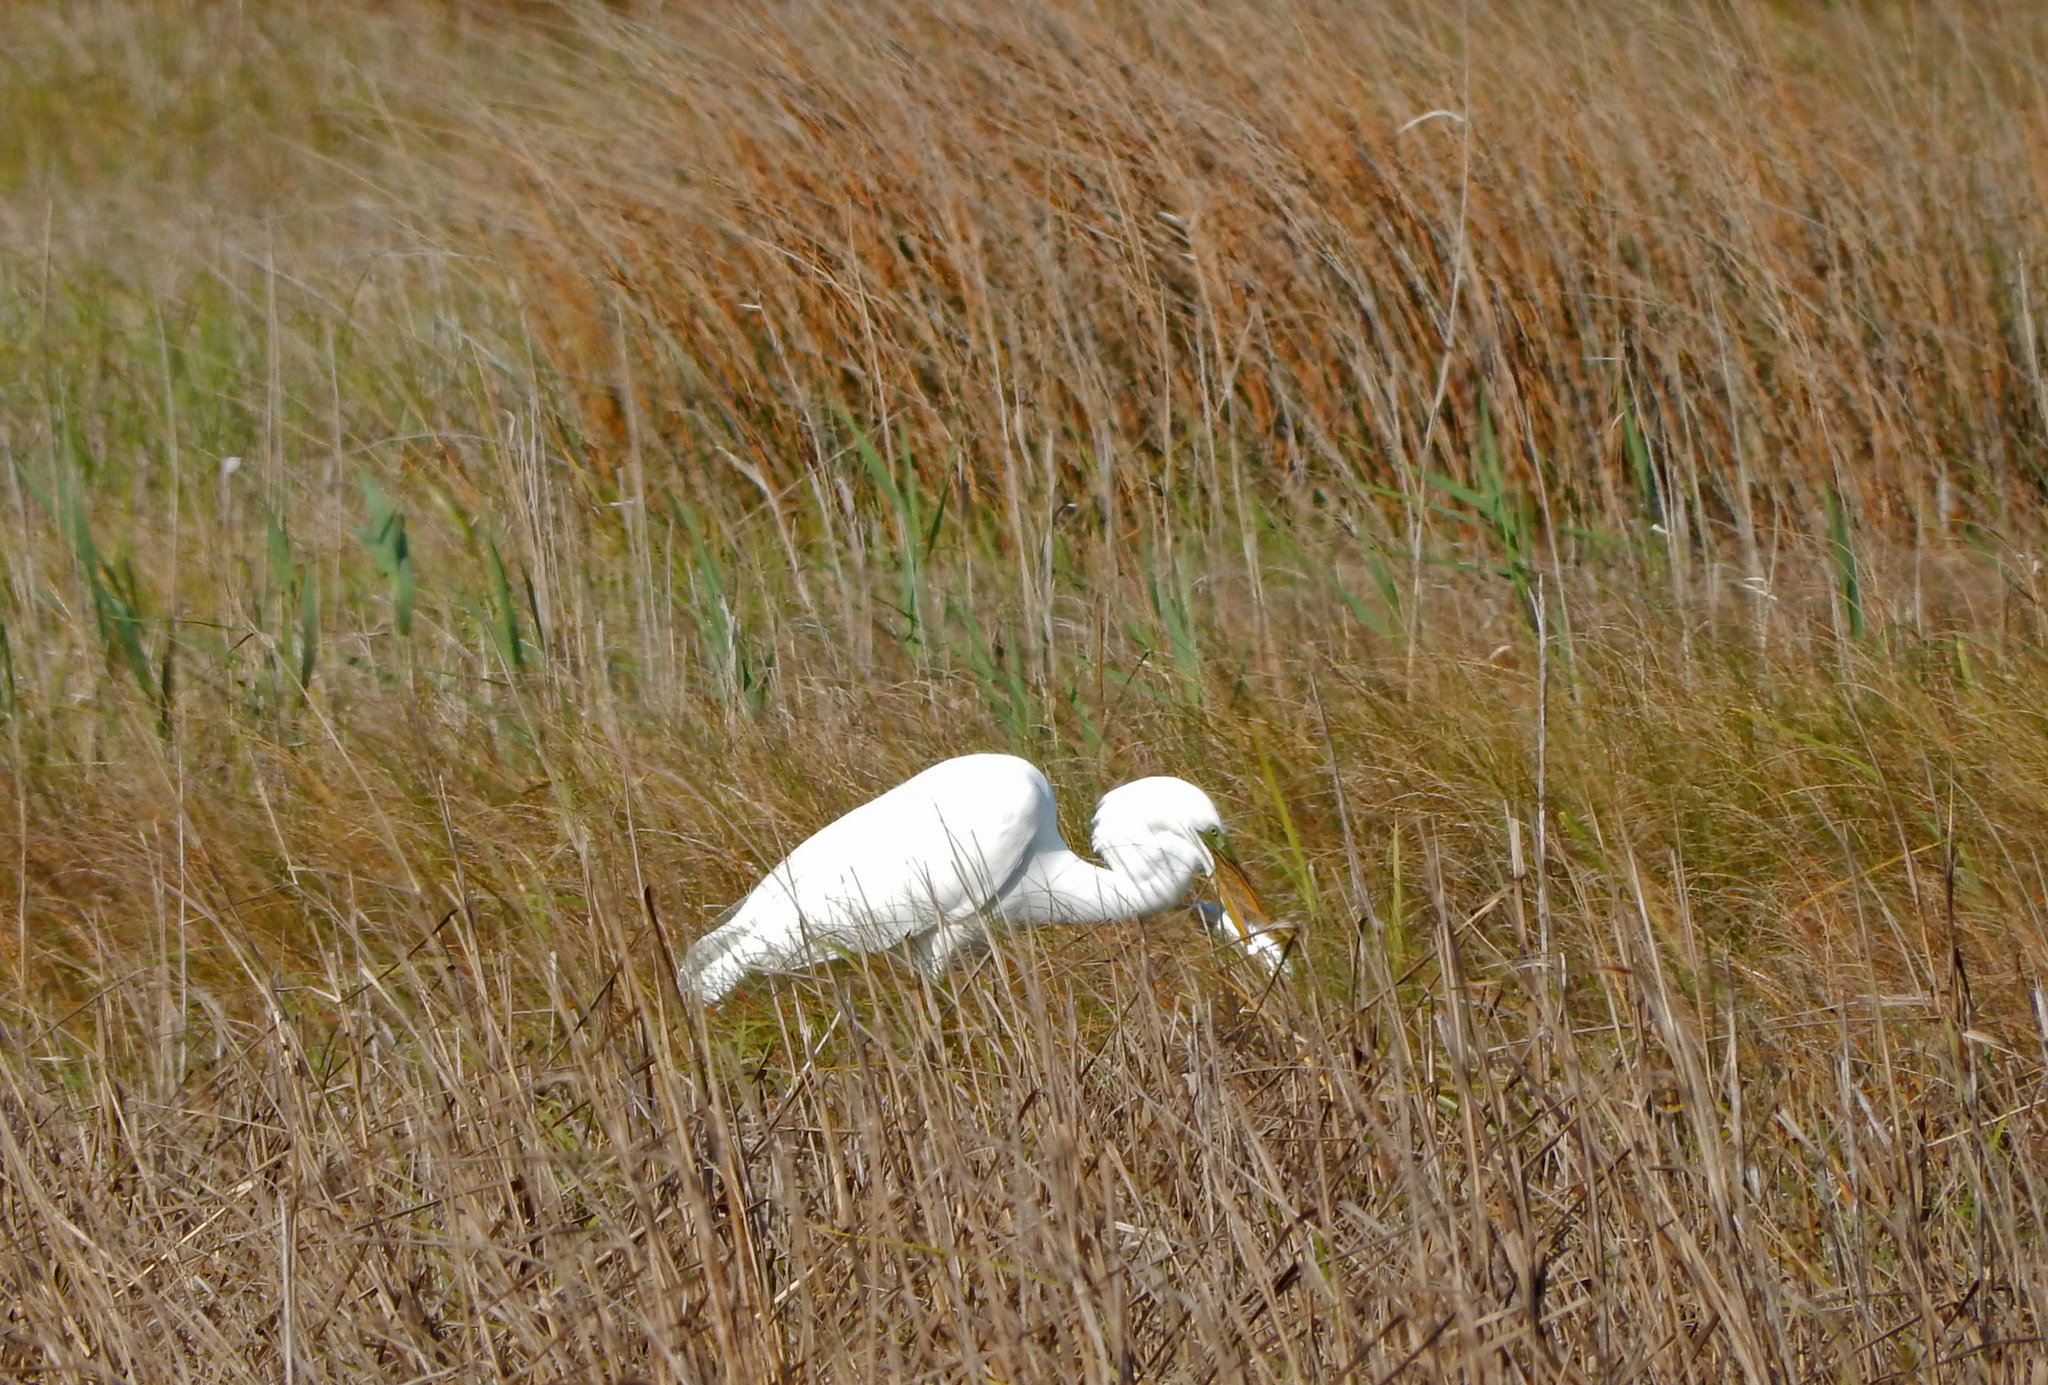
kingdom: Animalia
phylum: Chordata
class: Aves
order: Pelecaniformes
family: Ardeidae
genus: Ardea
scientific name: Ardea alba
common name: Great egret
